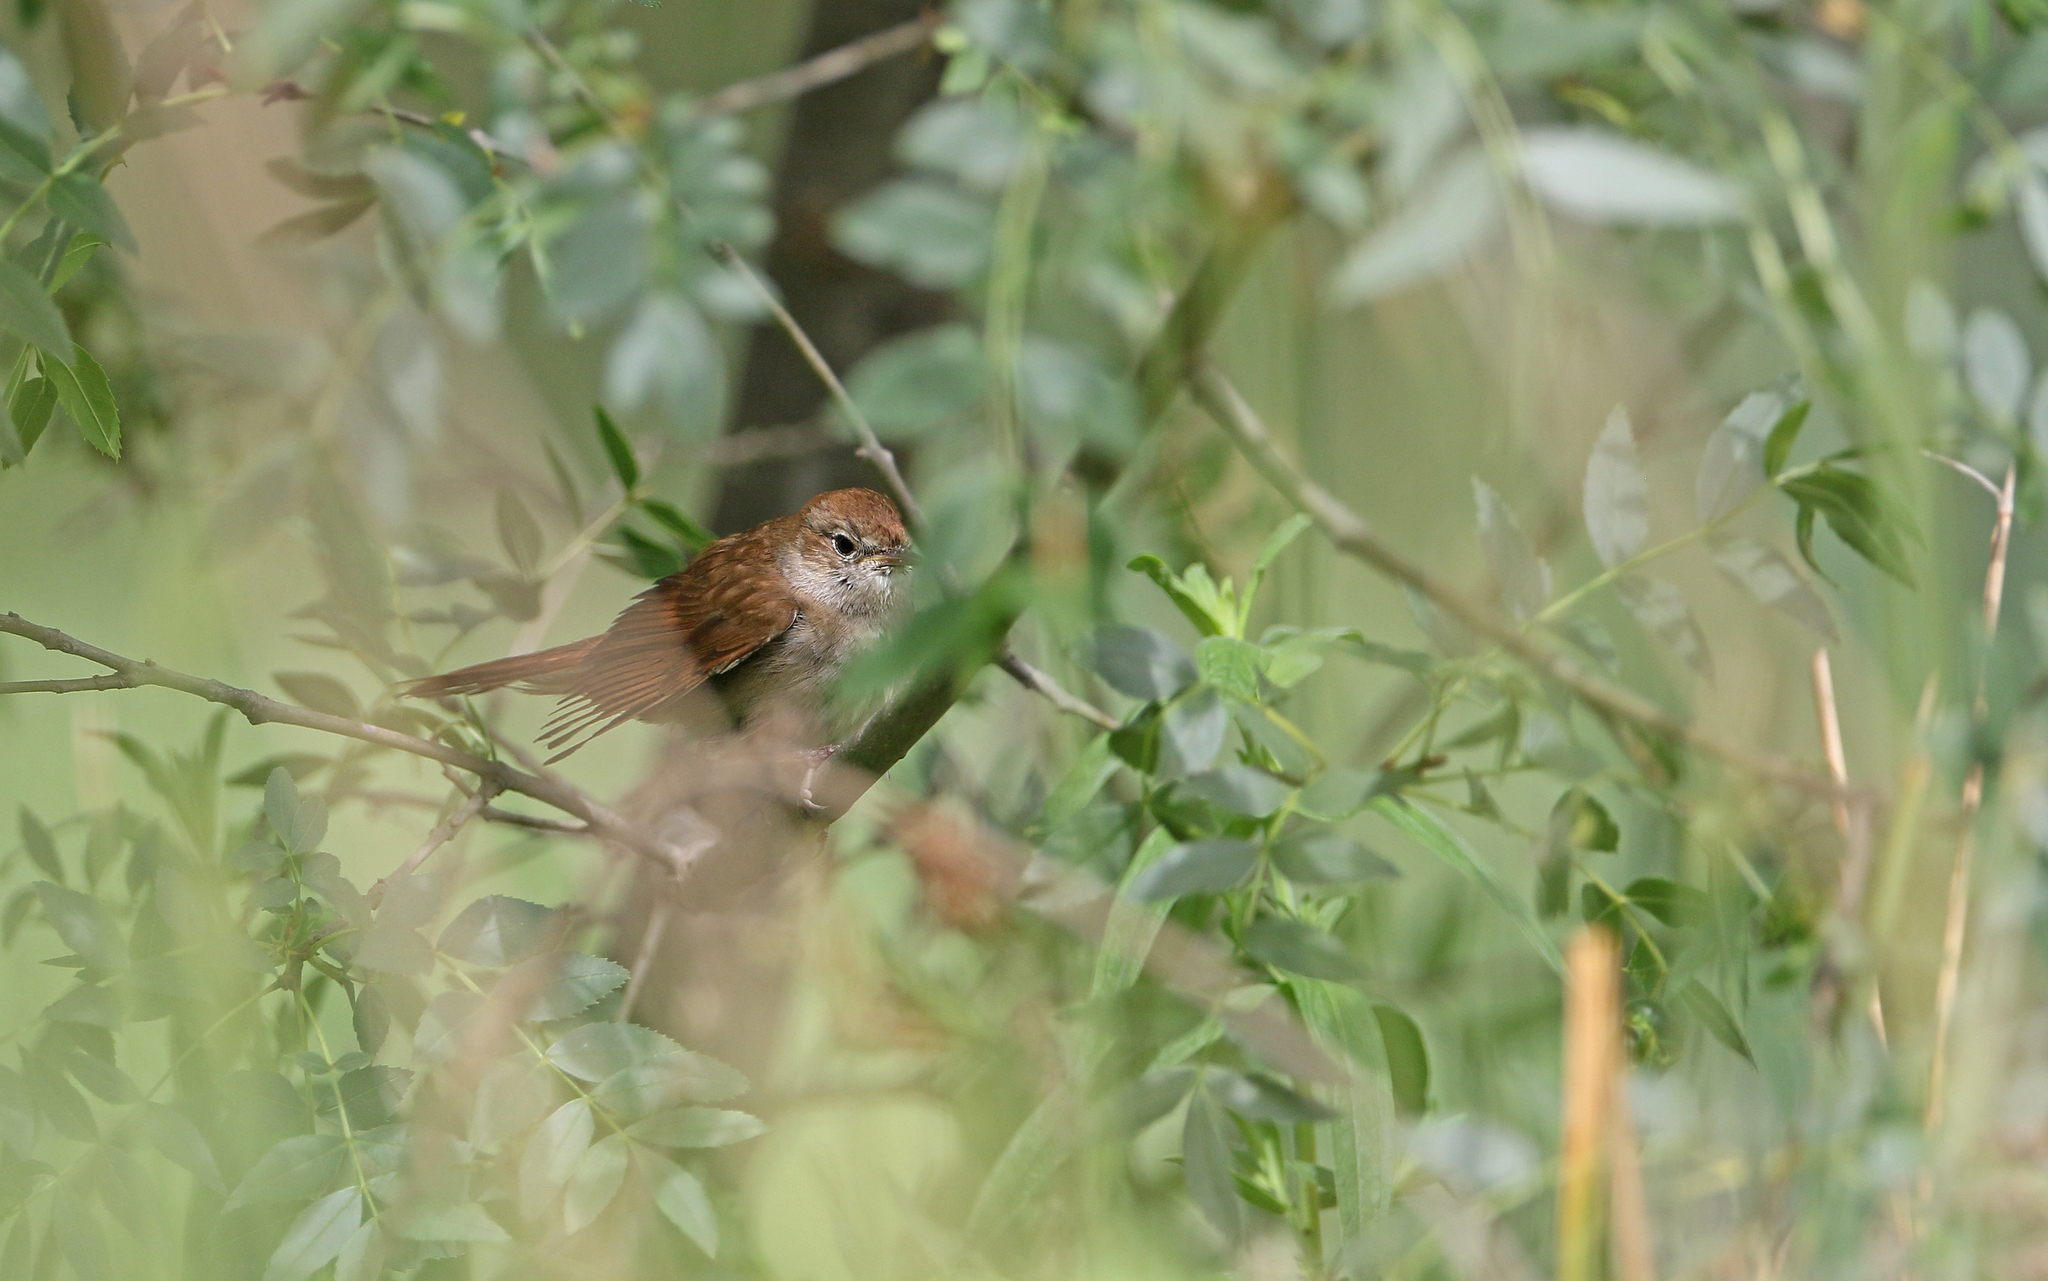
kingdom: Animalia
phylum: Chordata
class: Aves
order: Passeriformes
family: Muscicapidae
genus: Luscinia
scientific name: Luscinia megarhynchos
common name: Common nightingale
